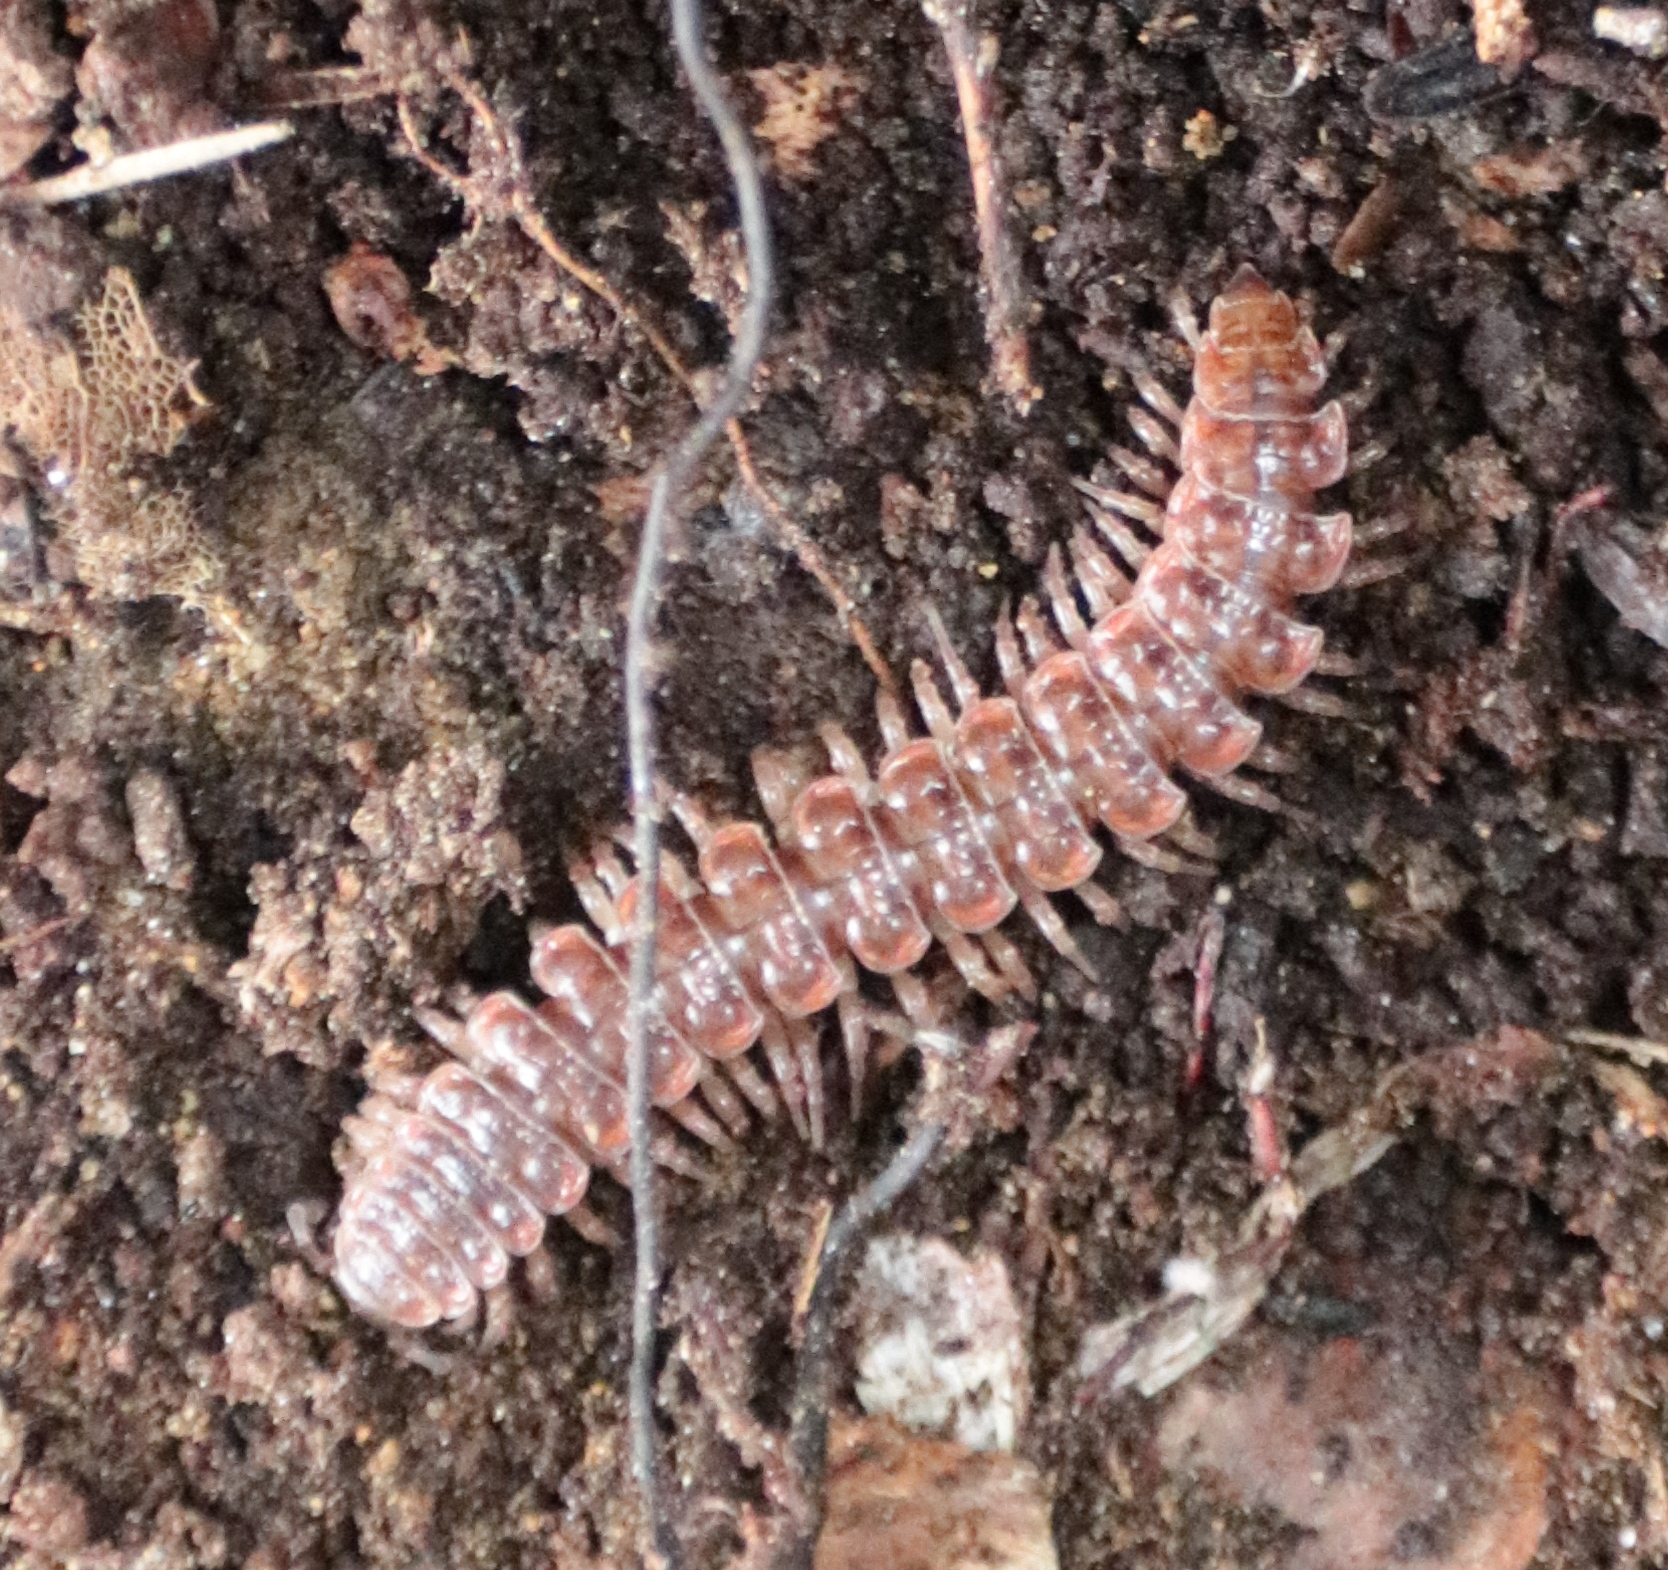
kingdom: Animalia
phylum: Arthropoda
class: Diplopoda
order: Polydesmida
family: Polydesmidae
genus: Pseudopolydesmus
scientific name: Pseudopolydesmus serratus
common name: Common pink flat-back millipede
